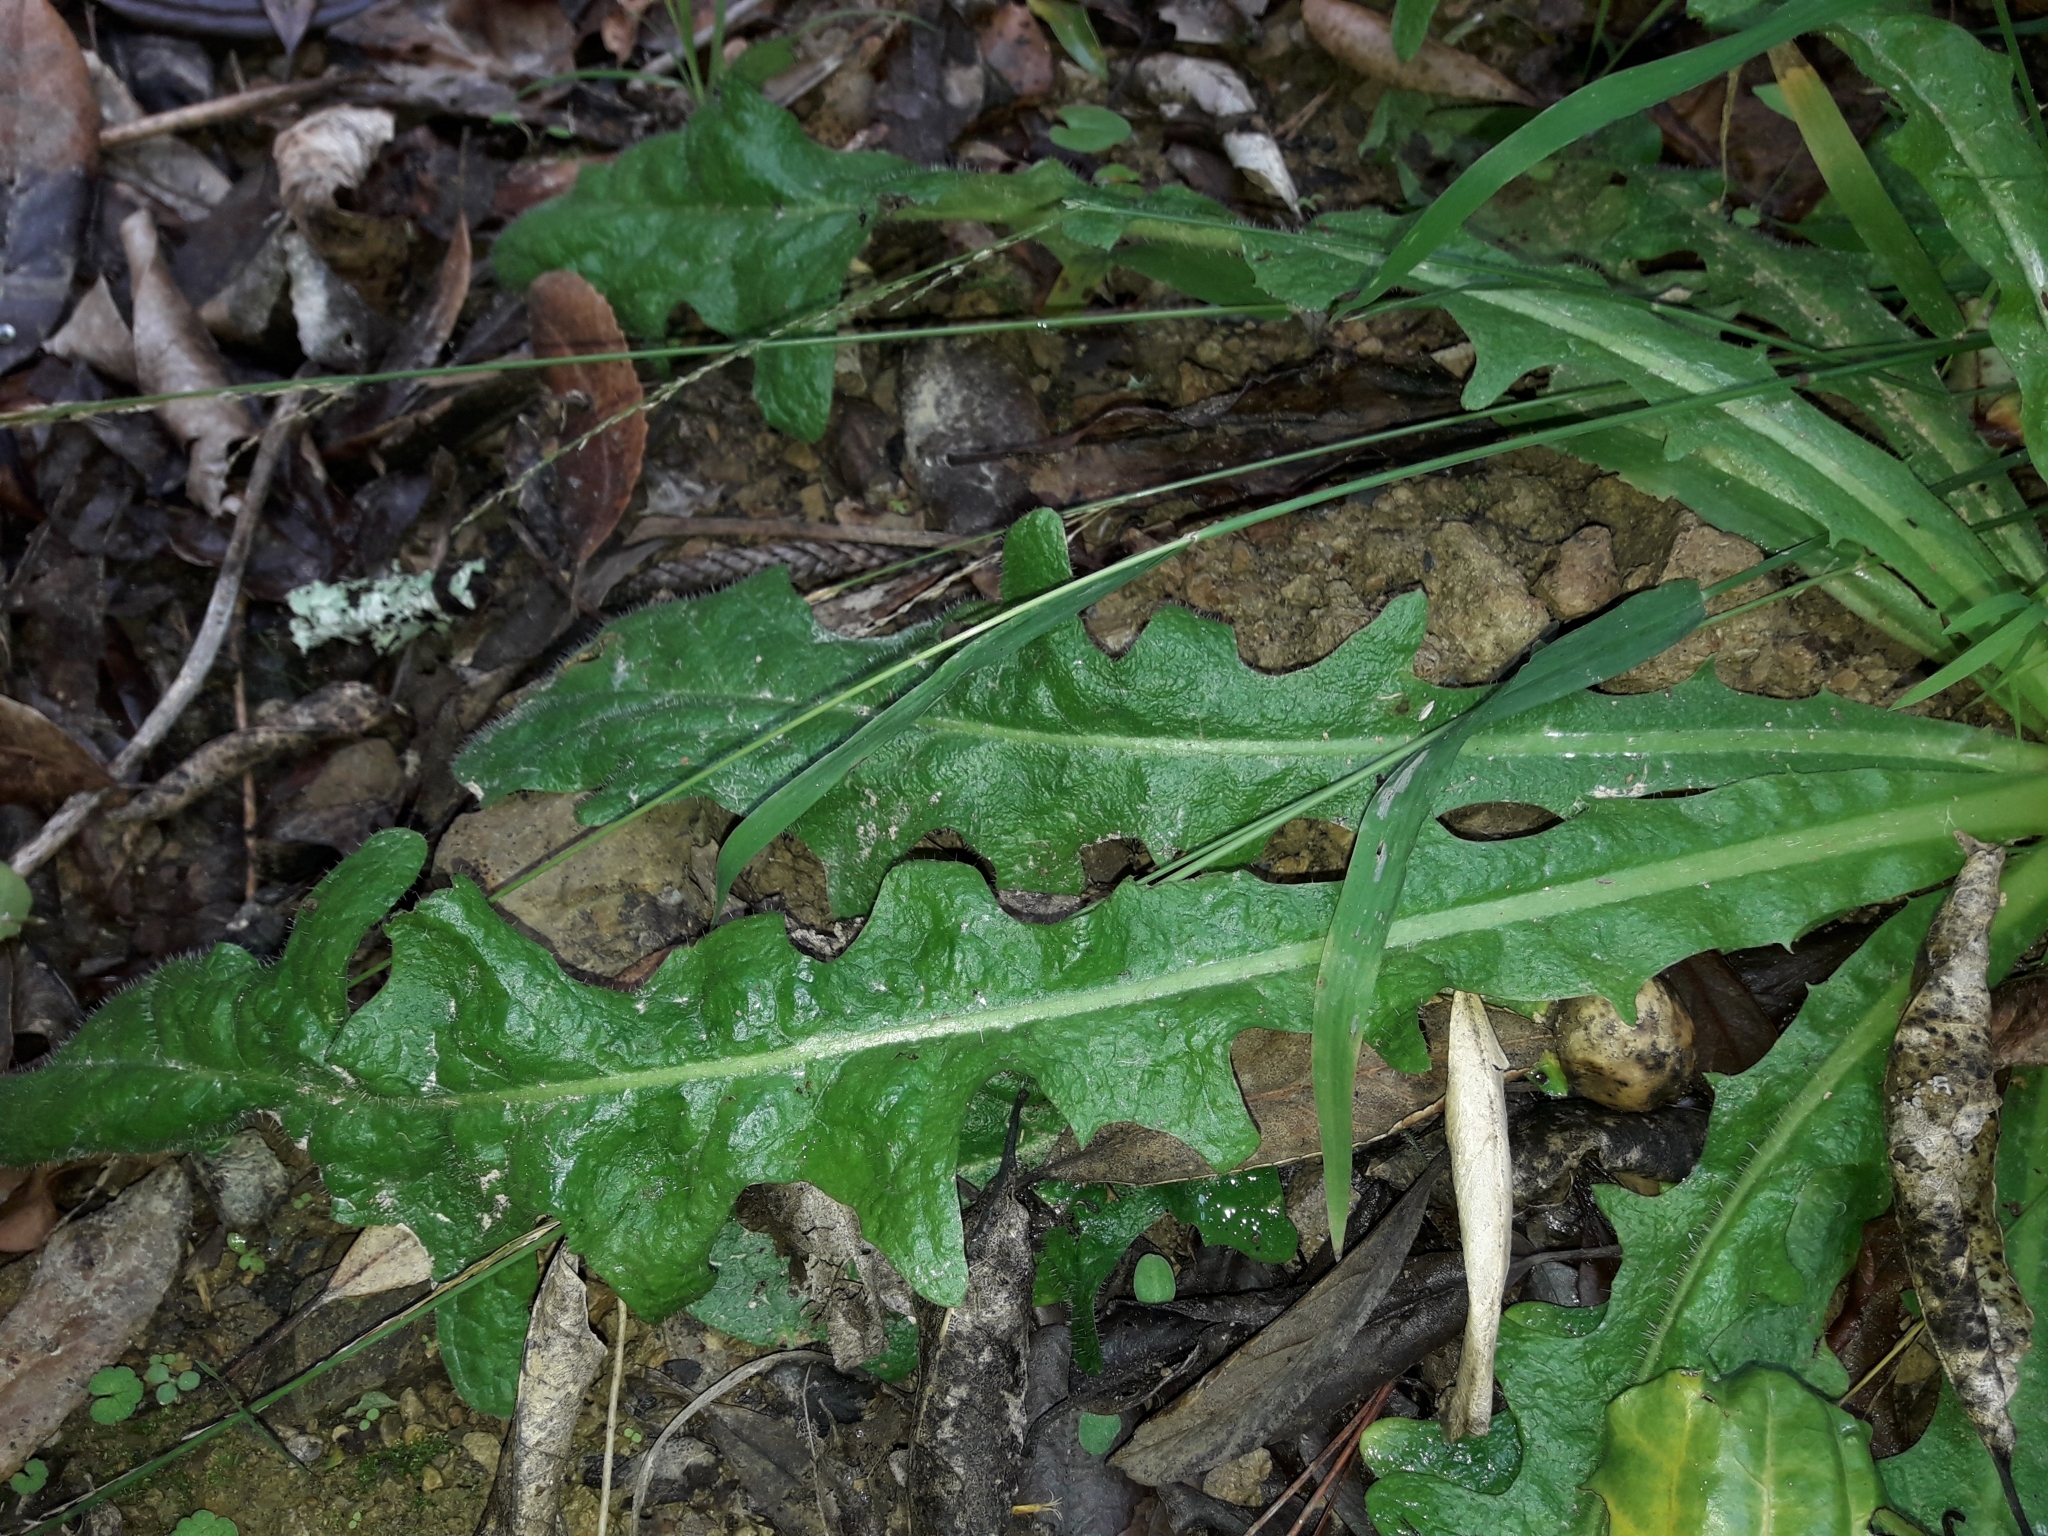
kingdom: Plantae
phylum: Tracheophyta
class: Magnoliopsida
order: Asterales
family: Asteraceae
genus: Hypochaeris
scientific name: Hypochaeris radicata
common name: Flatweed
